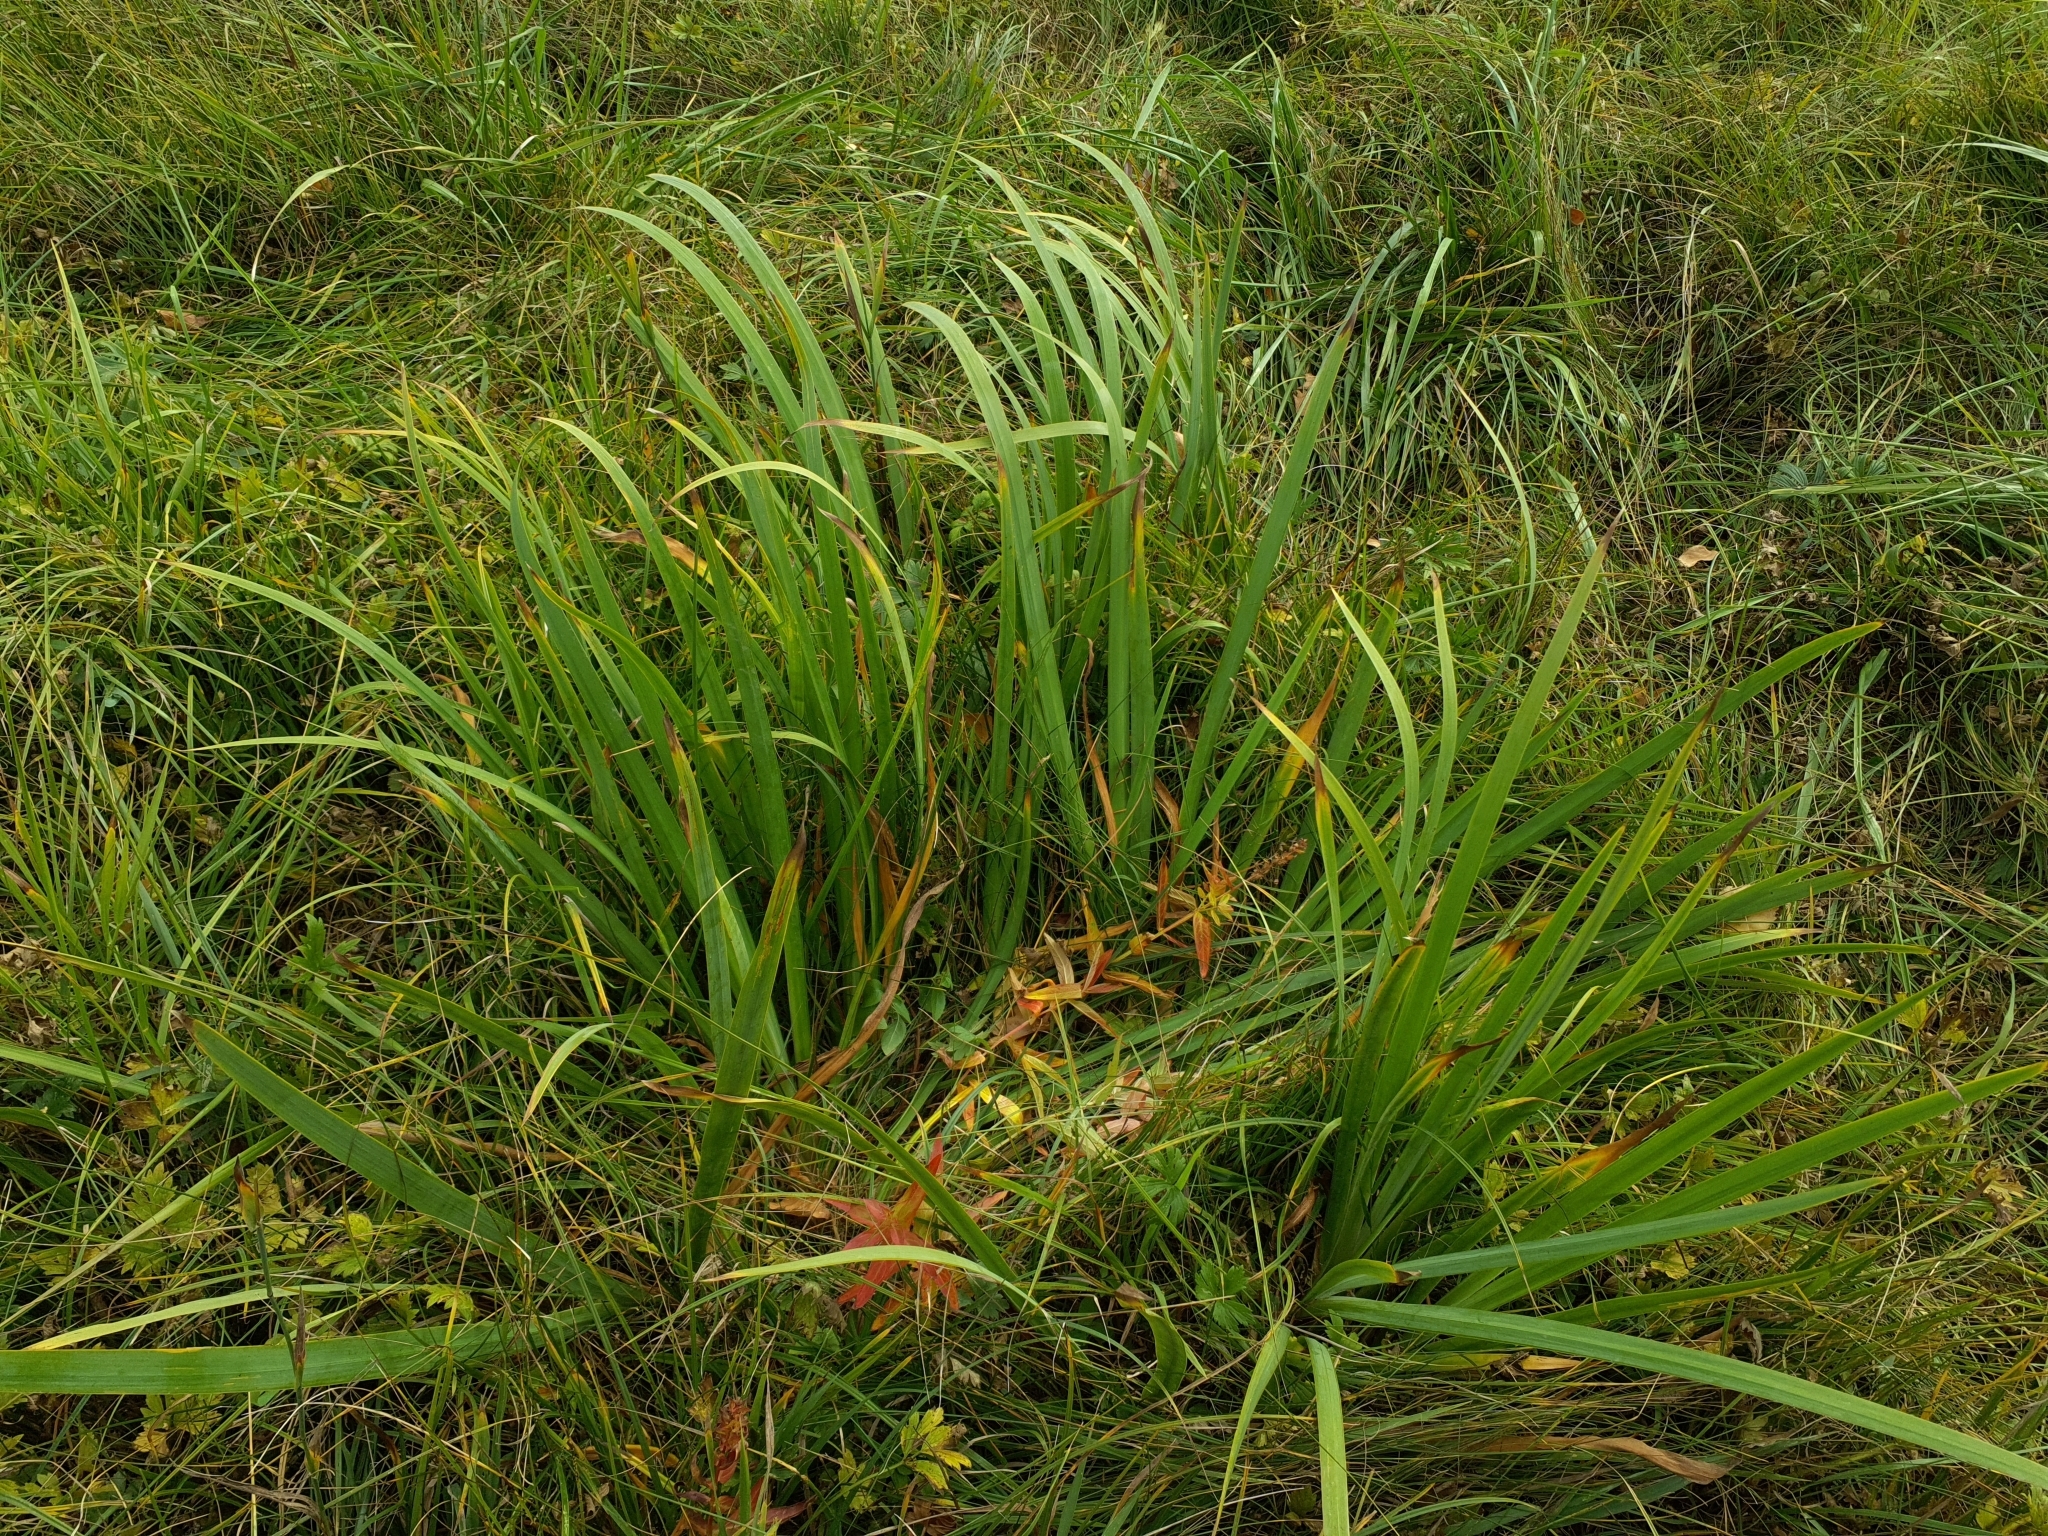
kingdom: Plantae
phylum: Tracheophyta
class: Liliopsida
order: Asparagales
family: Iridaceae
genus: Iris
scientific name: Iris pseudacorus
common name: Yellow flag
